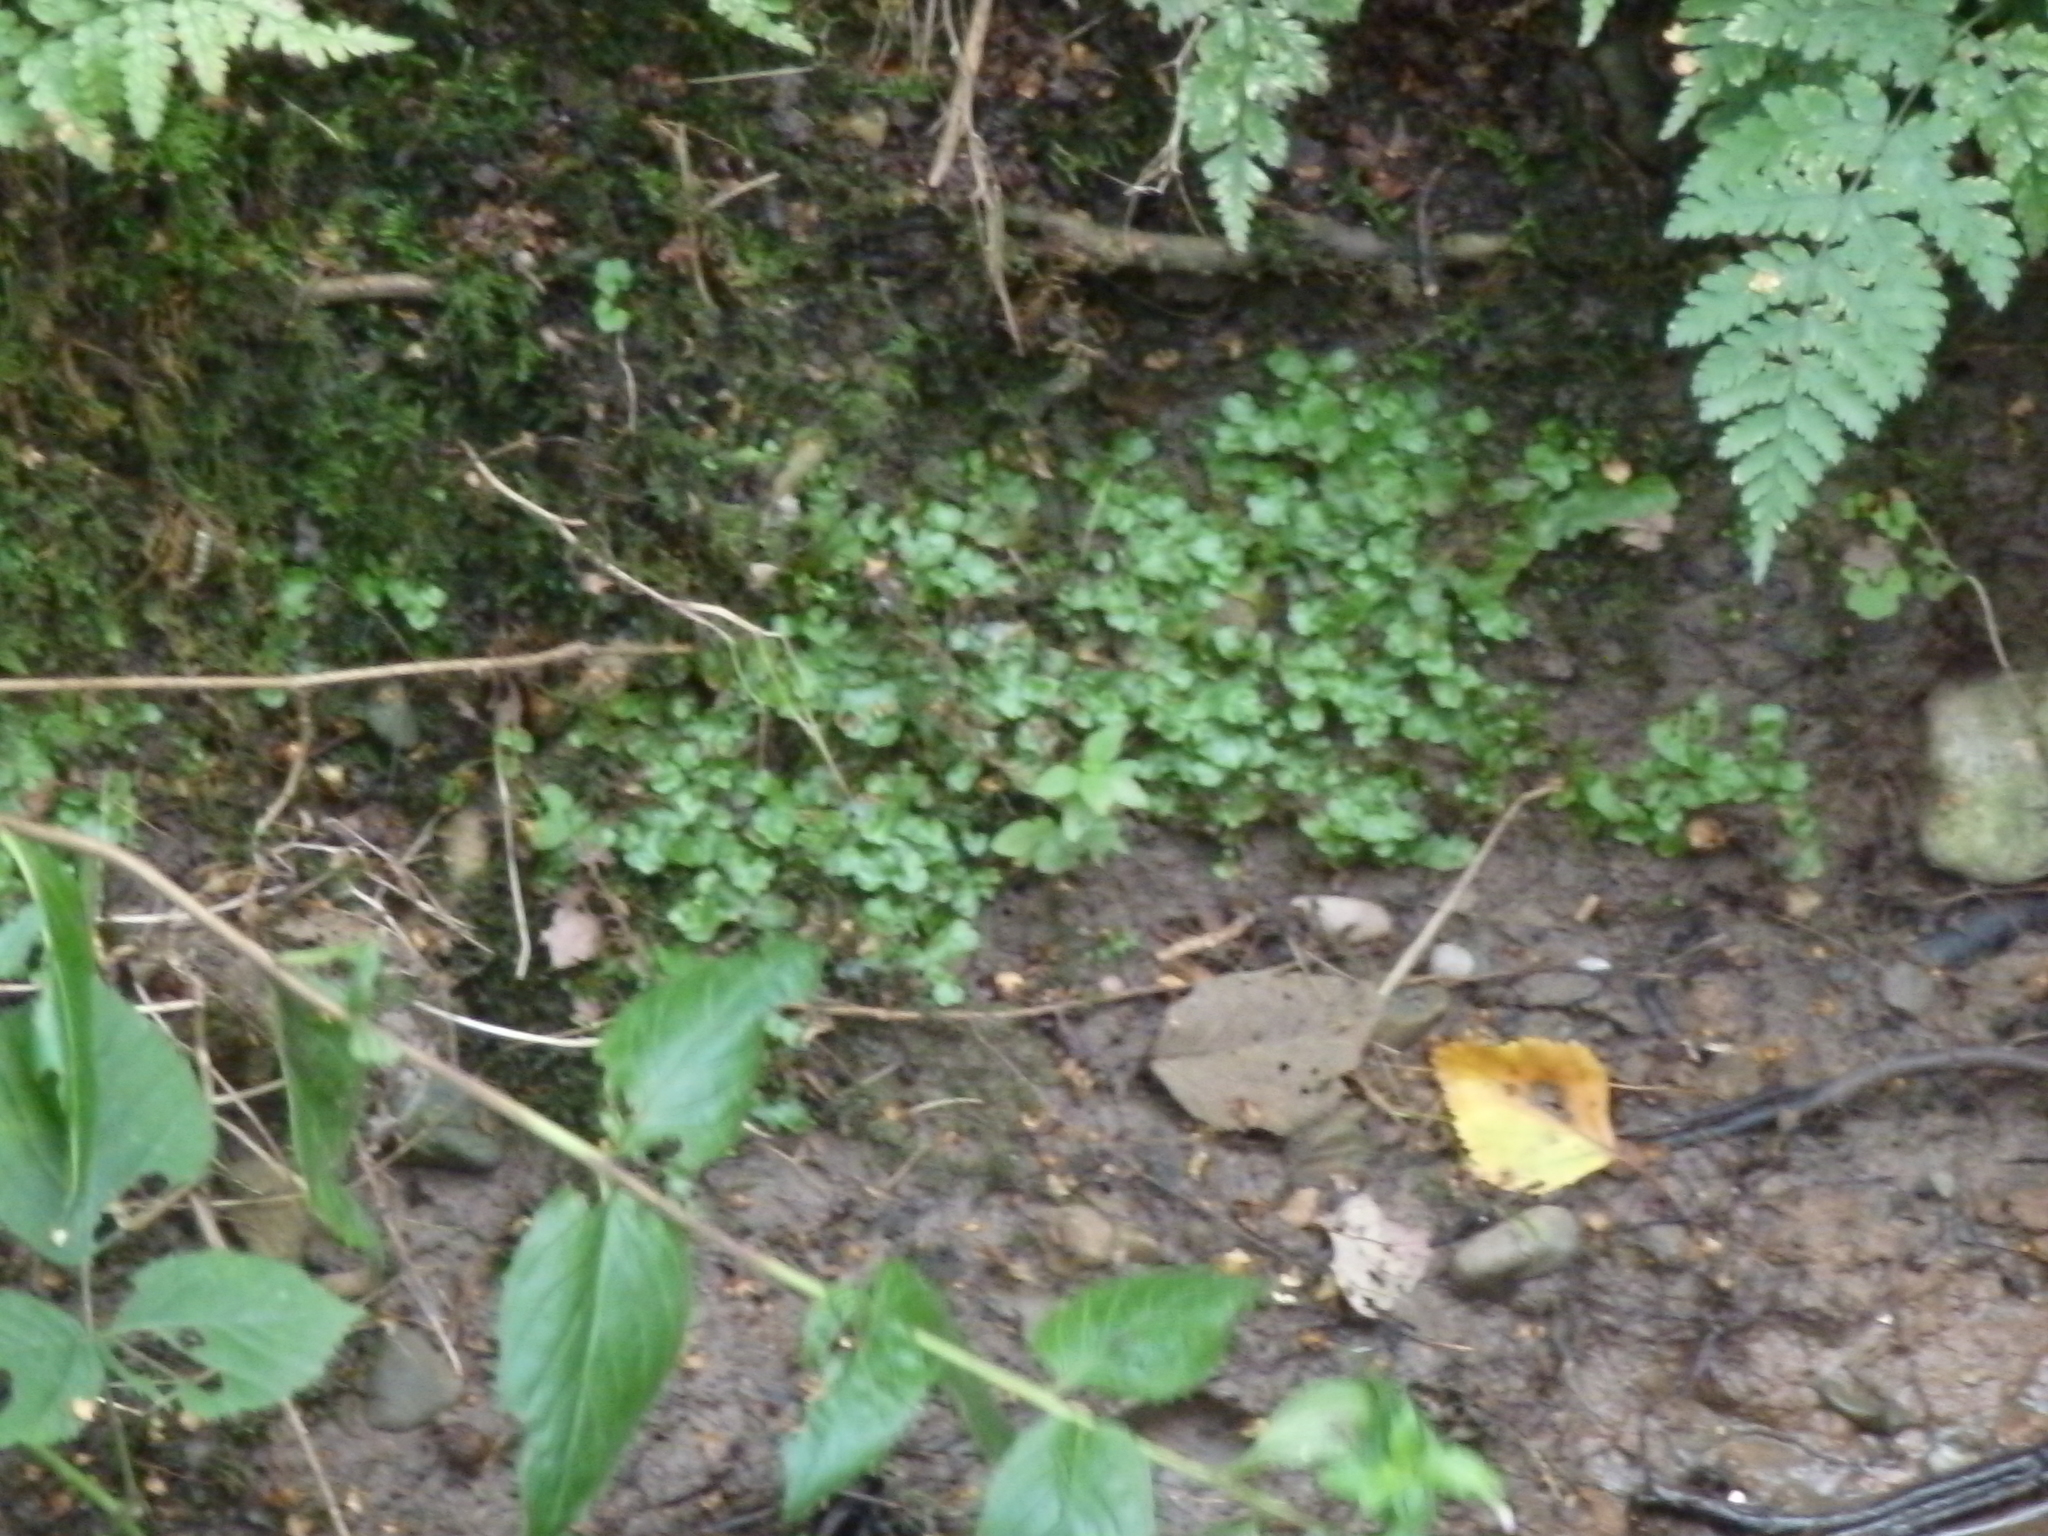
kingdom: Plantae
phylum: Marchantiophyta
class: Marchantiopsida
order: Marchantiales
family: Marchantiaceae
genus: Marchantia
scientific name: Marchantia polymorpha
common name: Common liverwort
